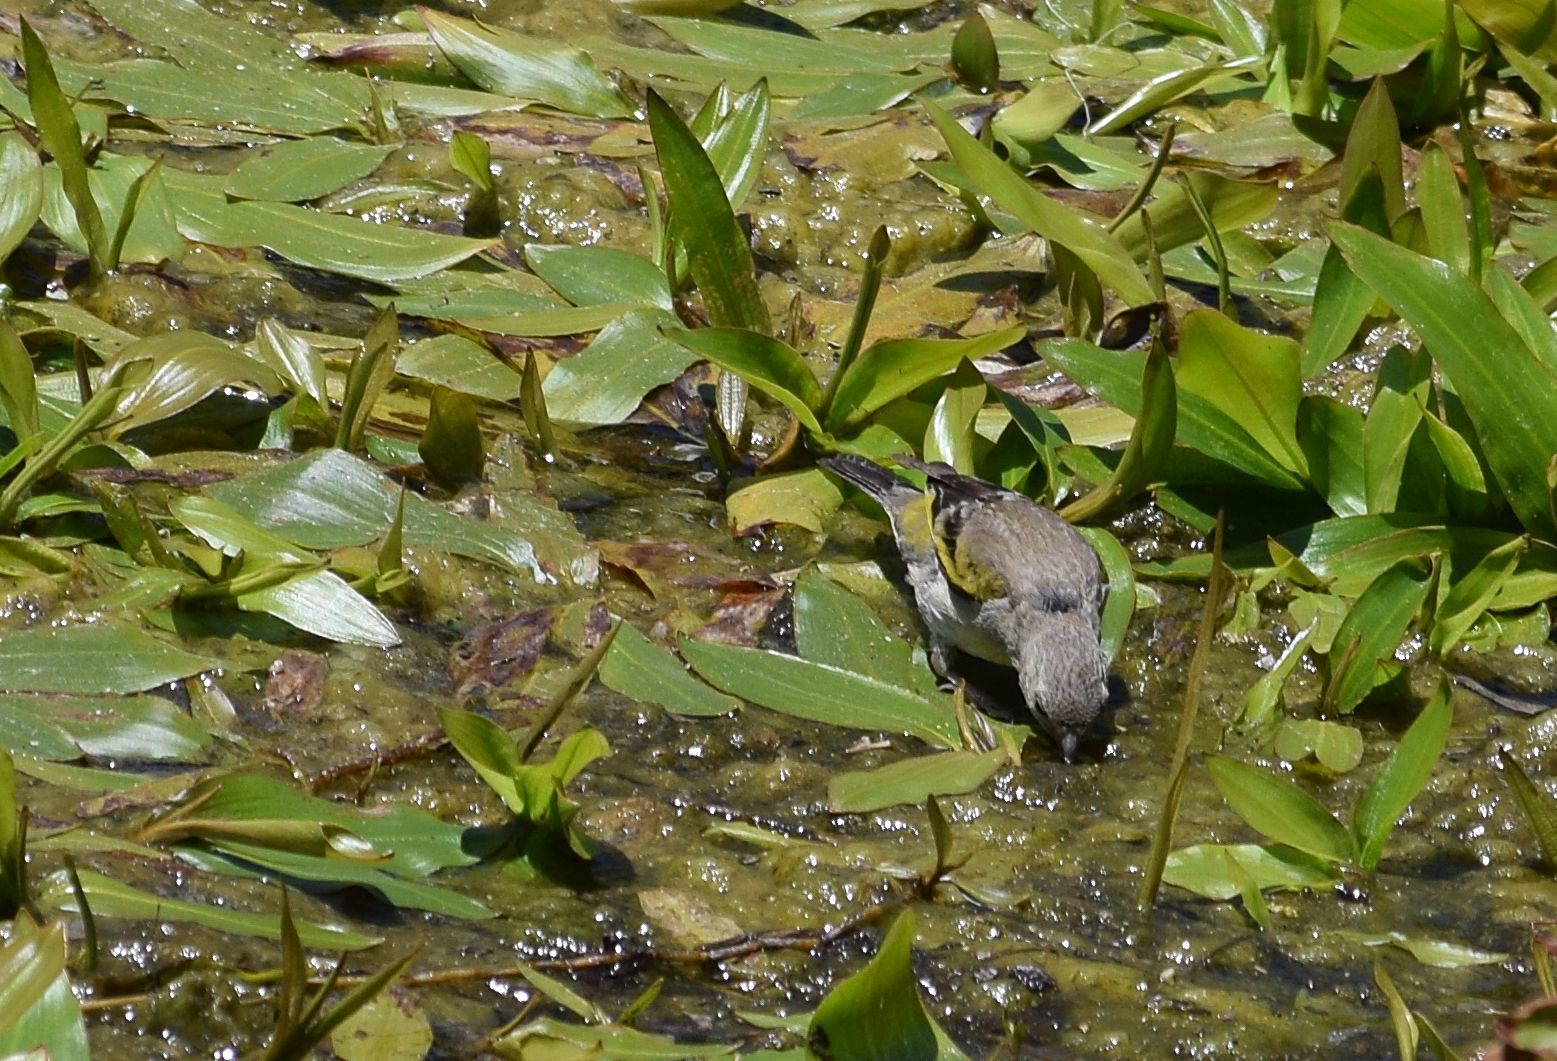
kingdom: Animalia
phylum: Chordata
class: Aves
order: Passeriformes
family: Fringillidae
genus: Spinus
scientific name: Spinus lawrencei
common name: Lawrence's goldfinch
